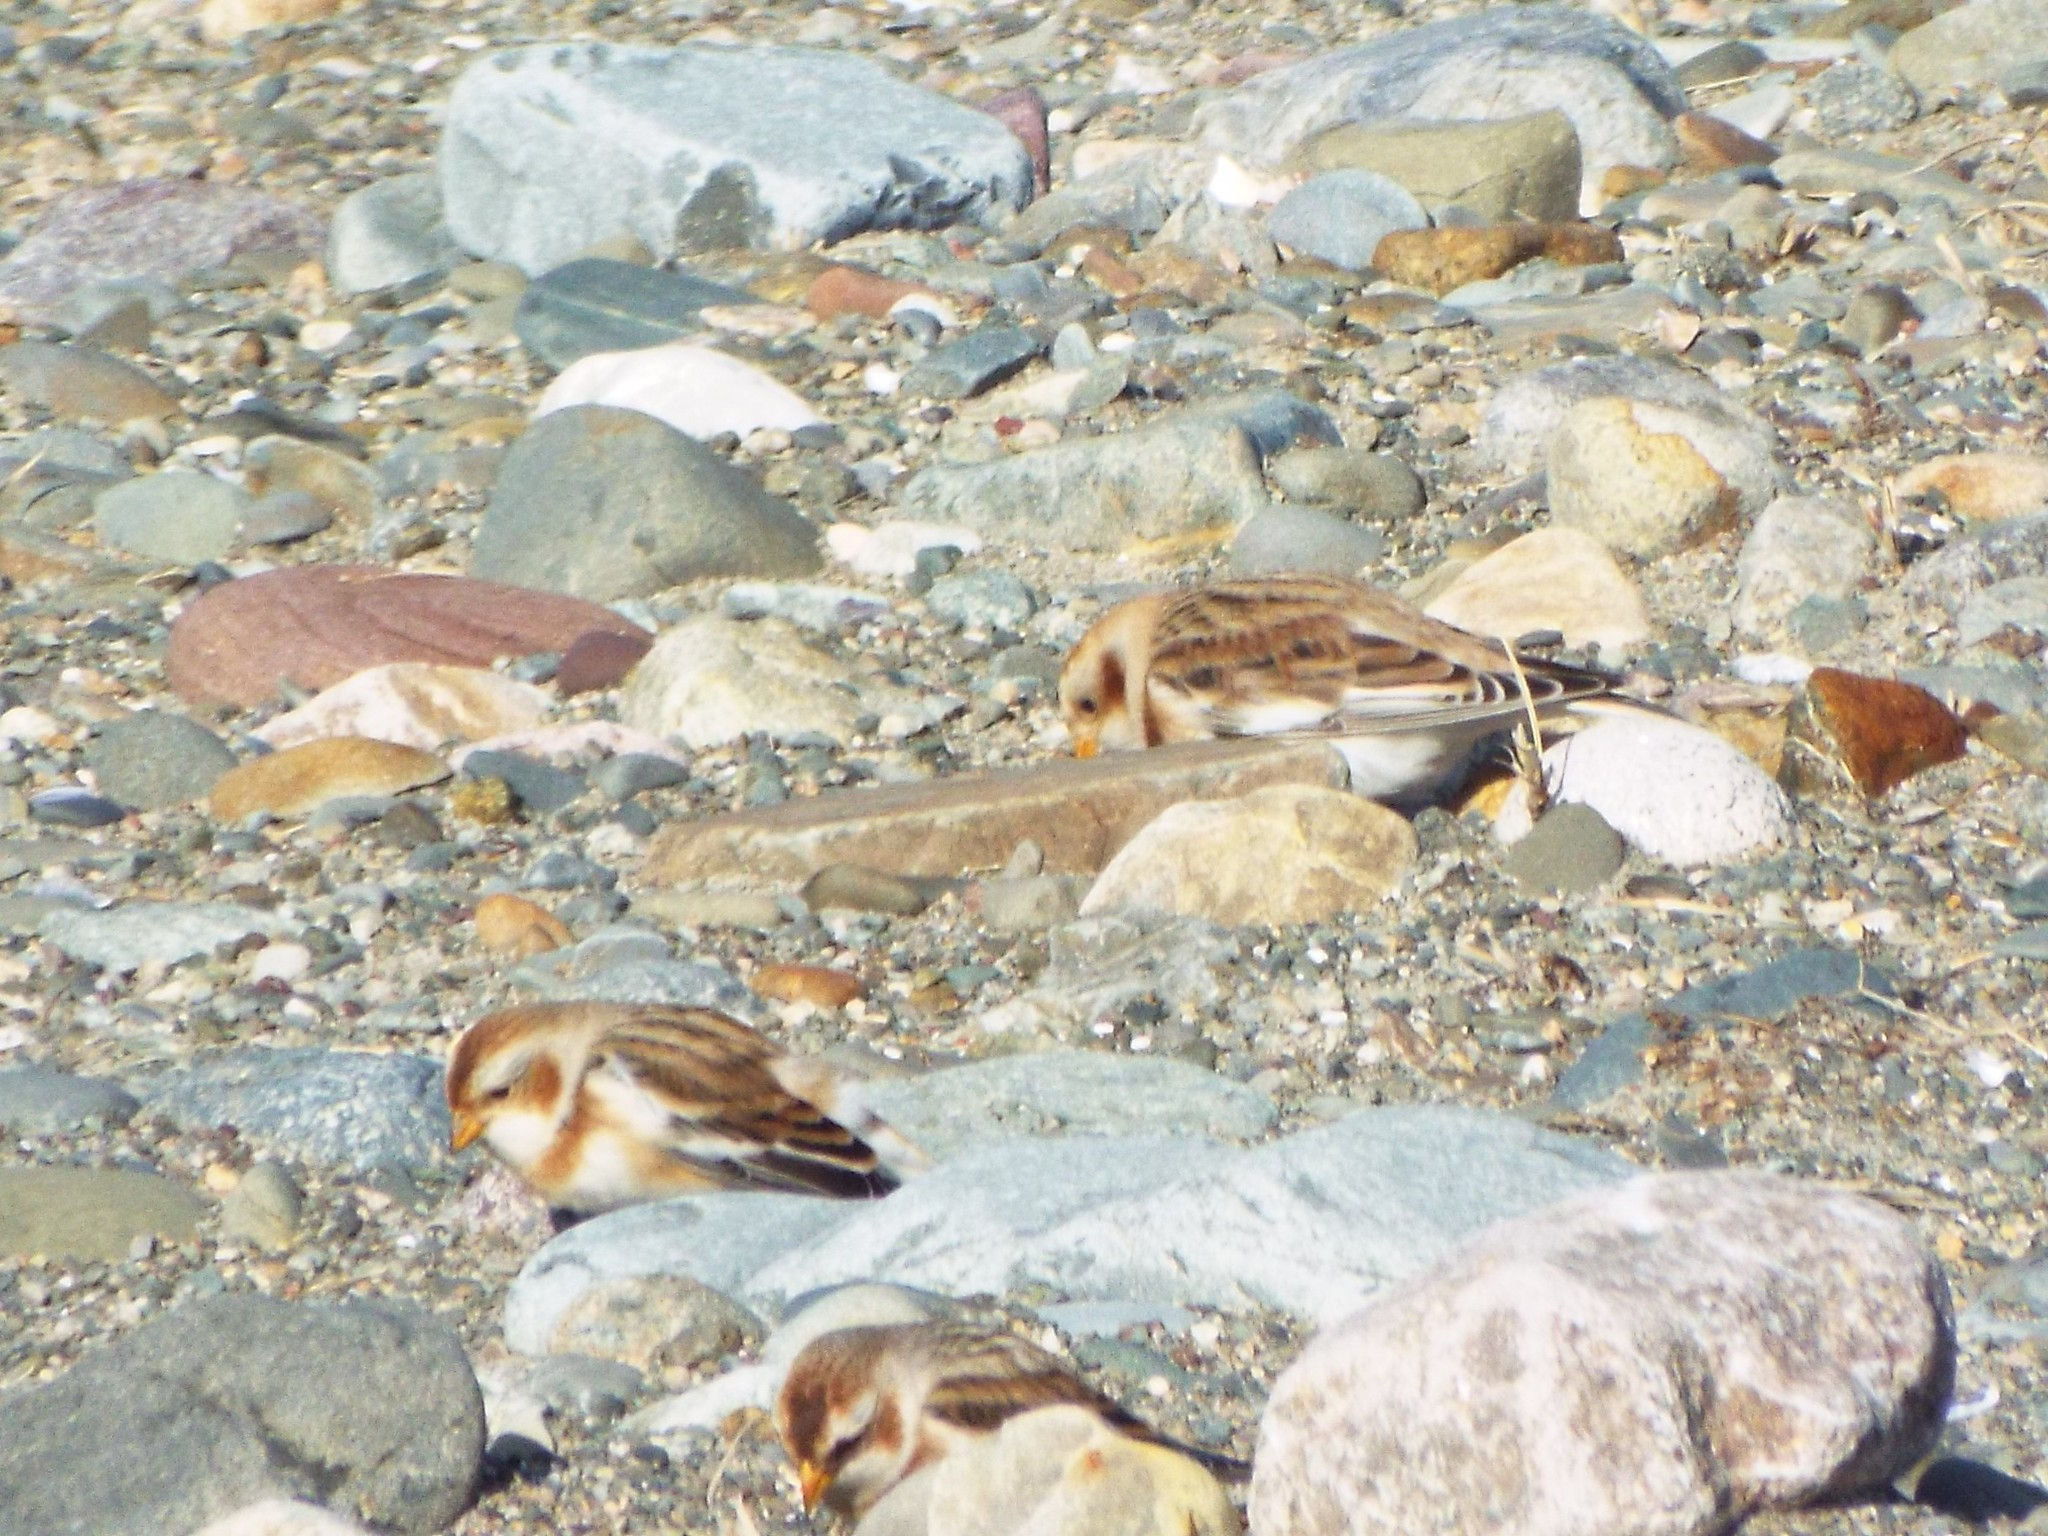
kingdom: Animalia
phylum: Chordata
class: Aves
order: Passeriformes
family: Calcariidae
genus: Plectrophenax
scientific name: Plectrophenax nivalis
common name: Snow bunting
